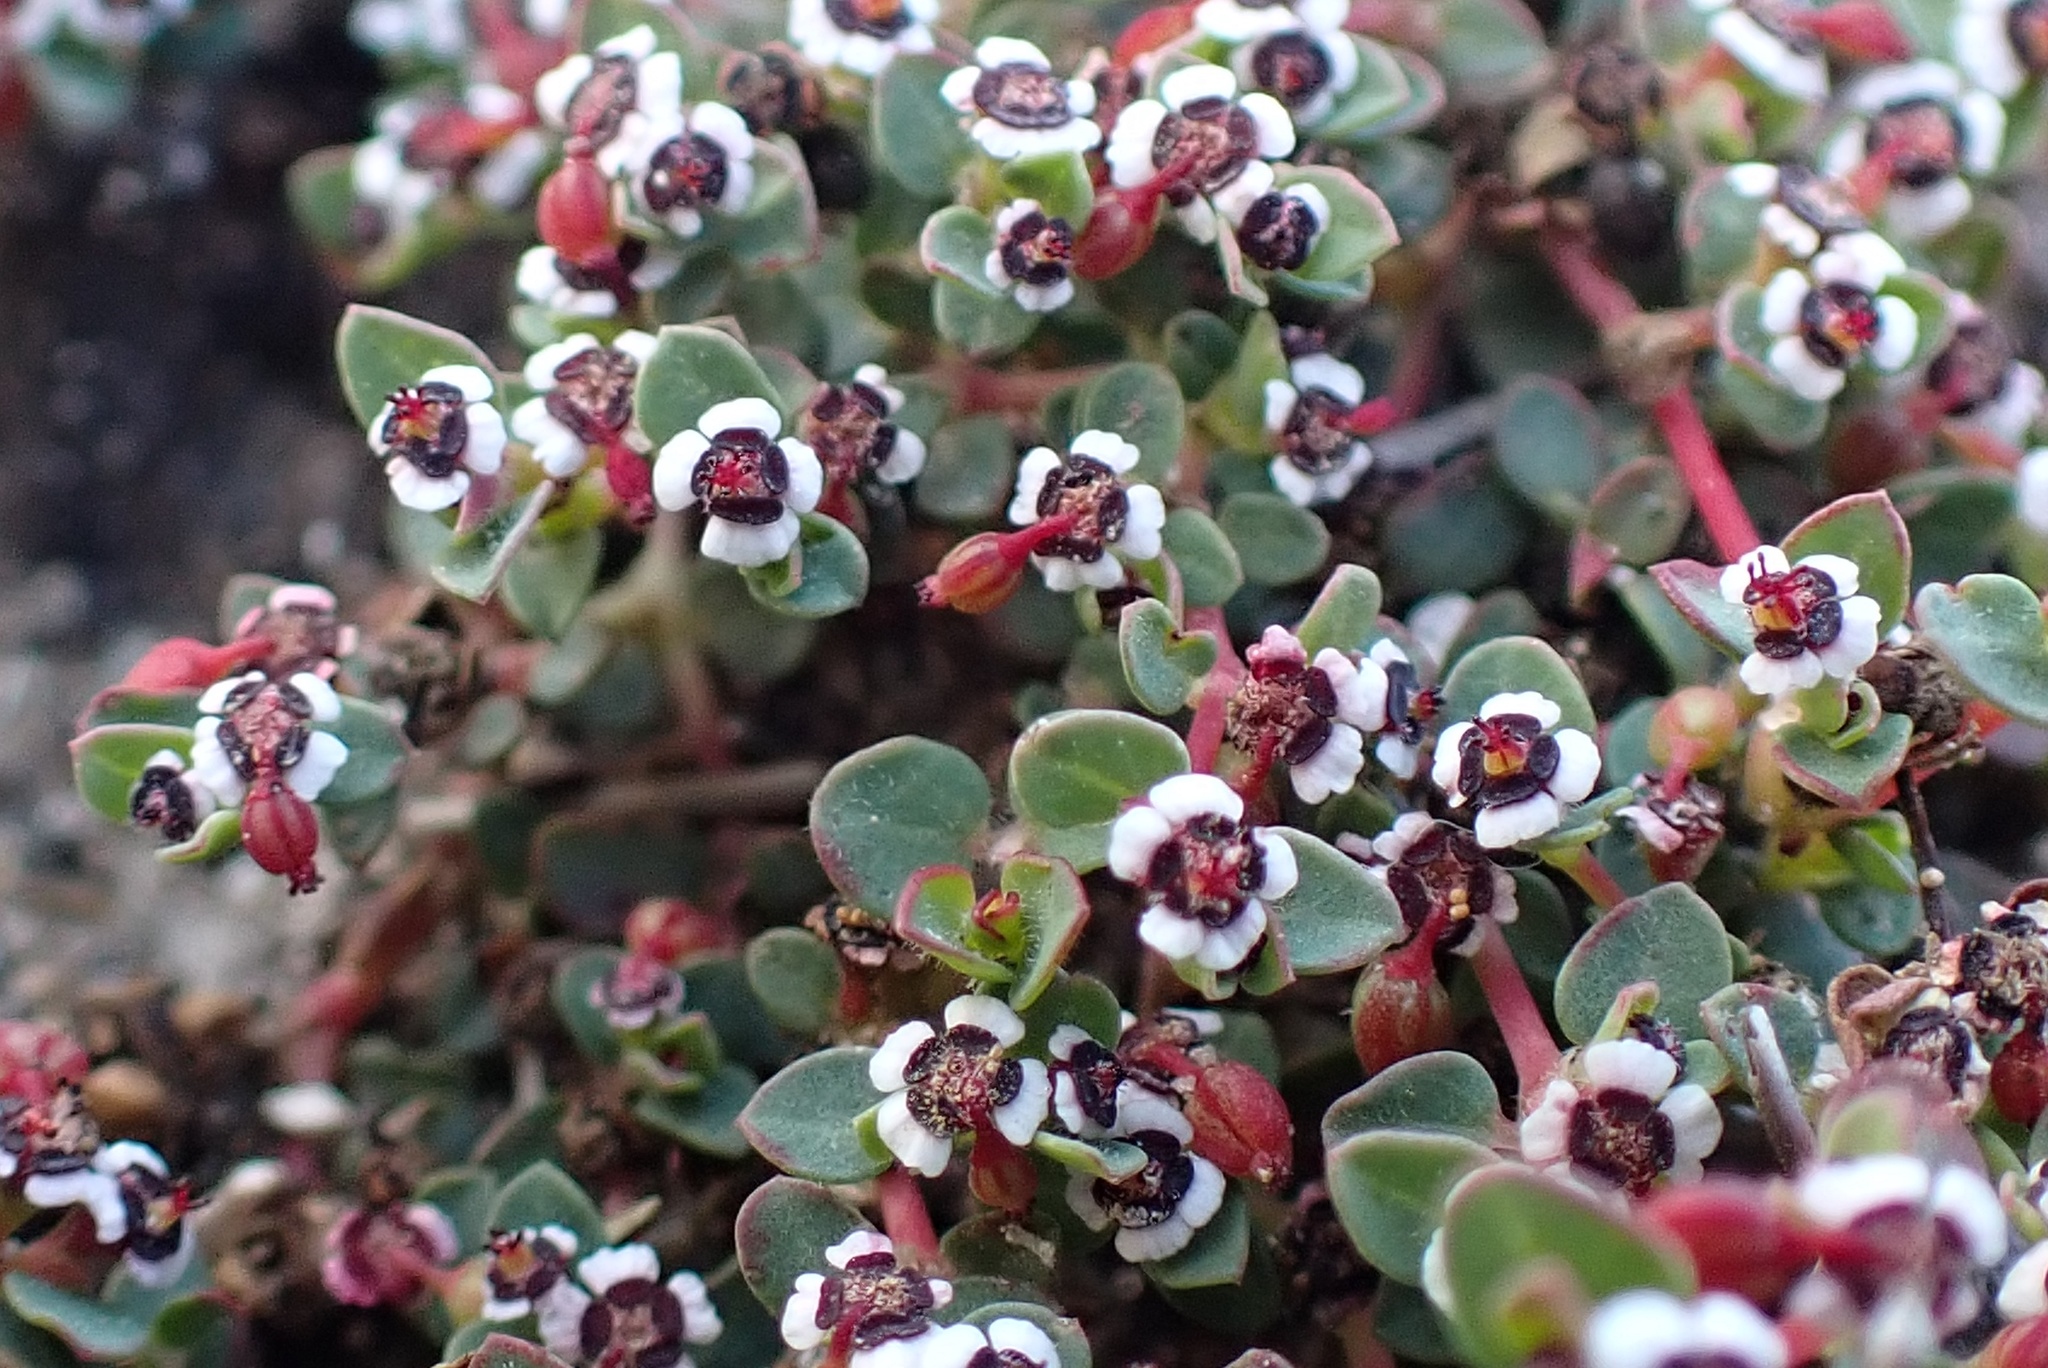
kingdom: Plantae
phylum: Tracheophyta
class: Magnoliopsida
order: Malpighiales
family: Euphorbiaceae
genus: Euphorbia
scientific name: Euphorbia polycarpa
